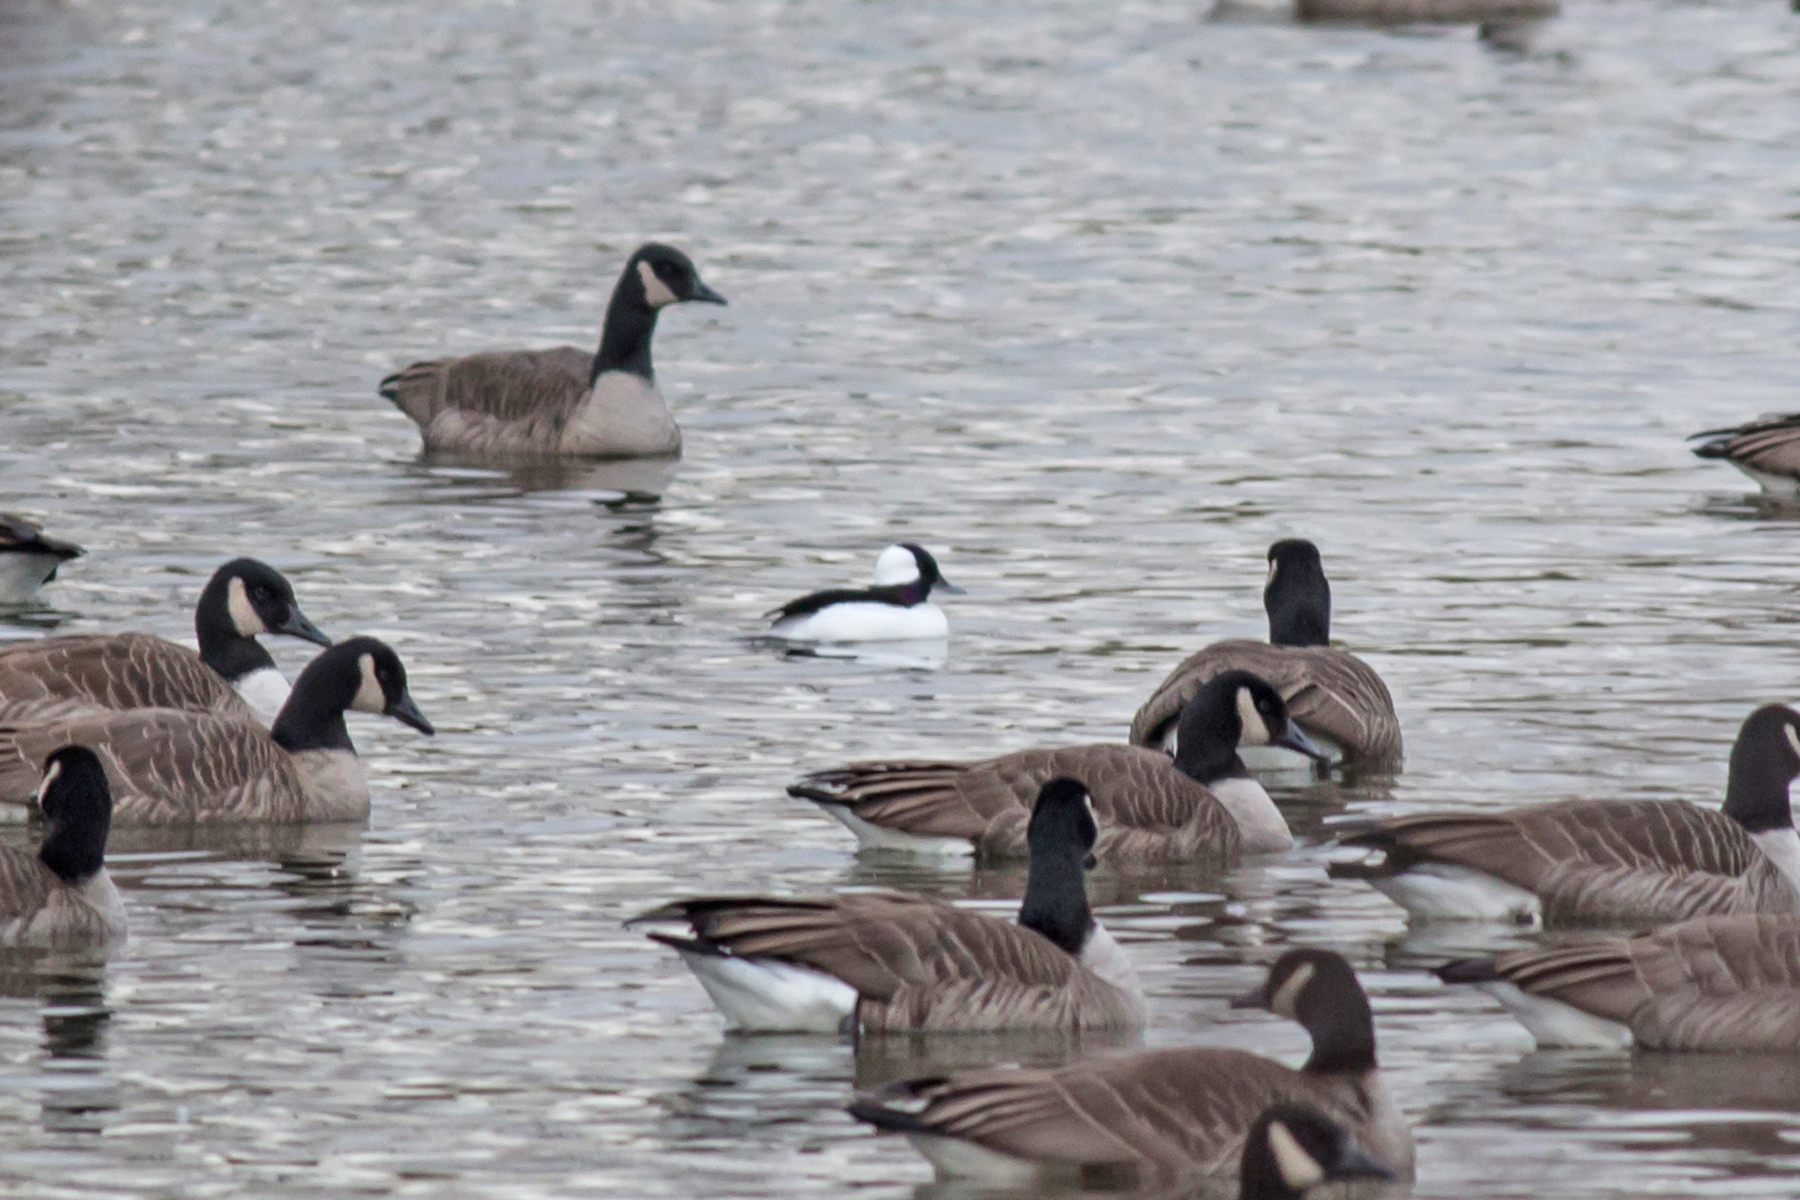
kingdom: Animalia
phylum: Chordata
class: Aves
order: Anseriformes
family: Anatidae
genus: Bucephala
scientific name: Bucephala albeola
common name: Bufflehead
